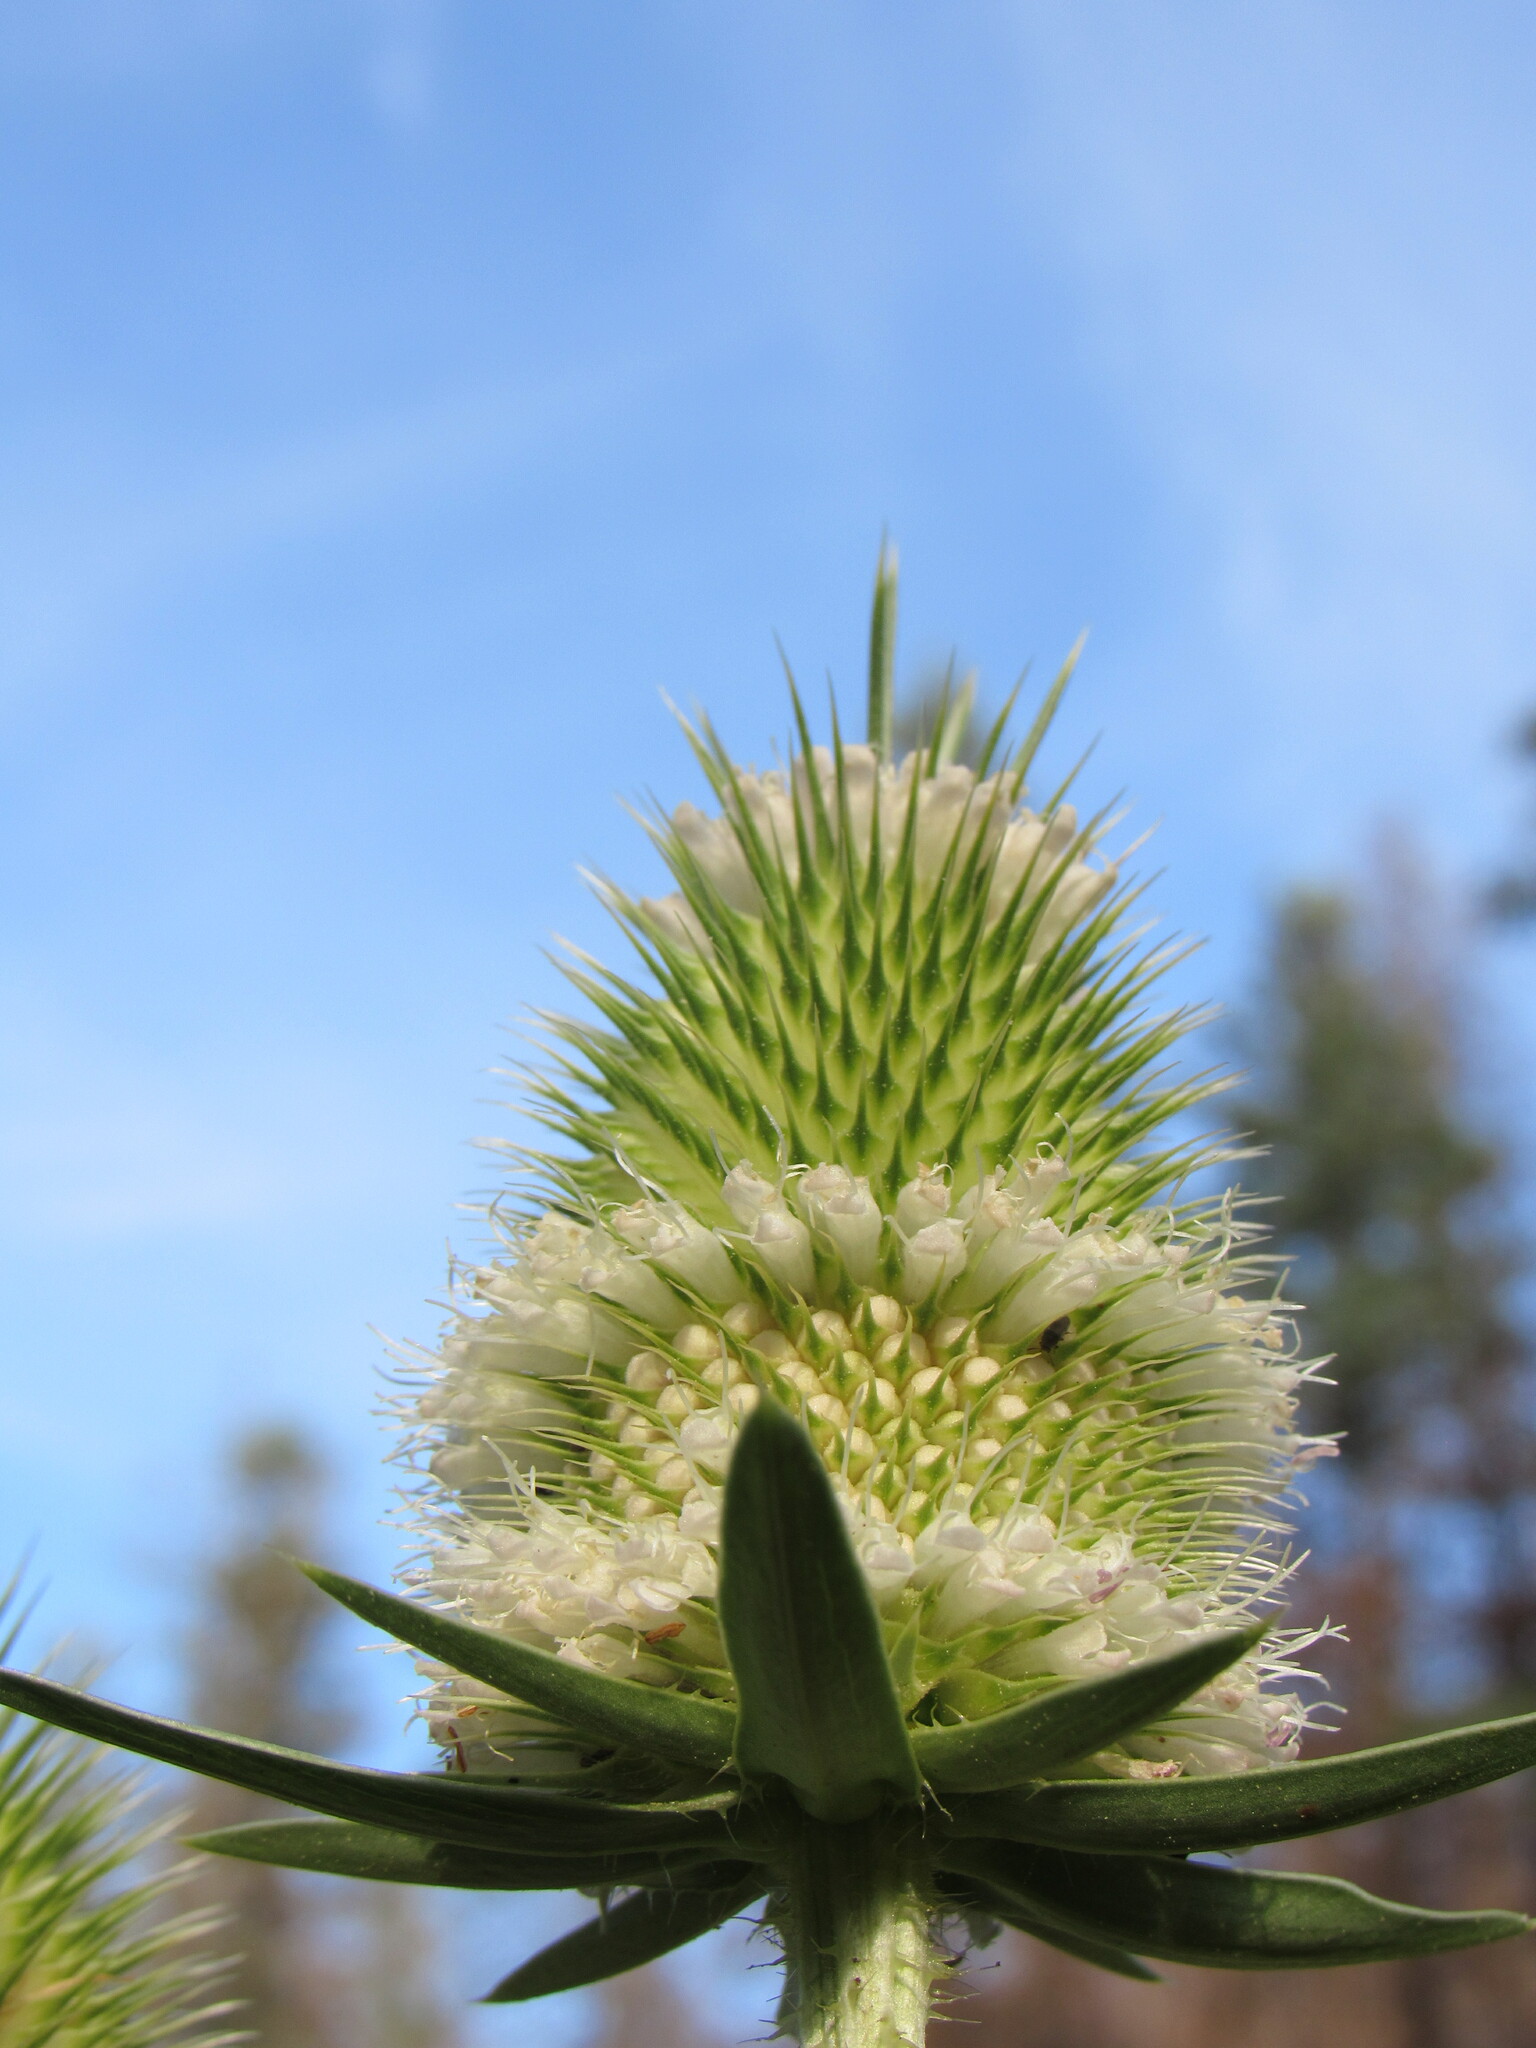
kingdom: Plantae
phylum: Tracheophyta
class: Magnoliopsida
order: Dipsacales
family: Caprifoliaceae
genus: Dipsacus
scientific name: Dipsacus laciniatus
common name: Cut-leaved teasel
